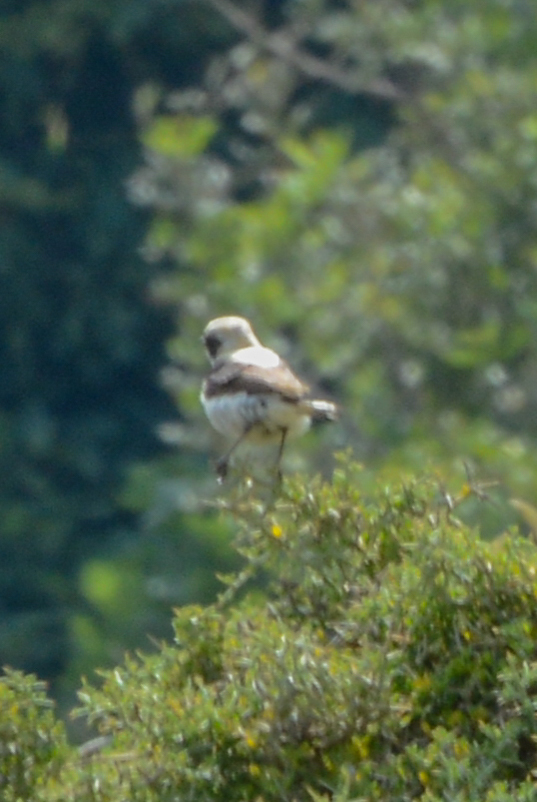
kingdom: Animalia
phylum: Chordata
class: Aves
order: Passeriformes
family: Muscicapidae
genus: Oenanthe
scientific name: Oenanthe oenanthe
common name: Northern wheatear
